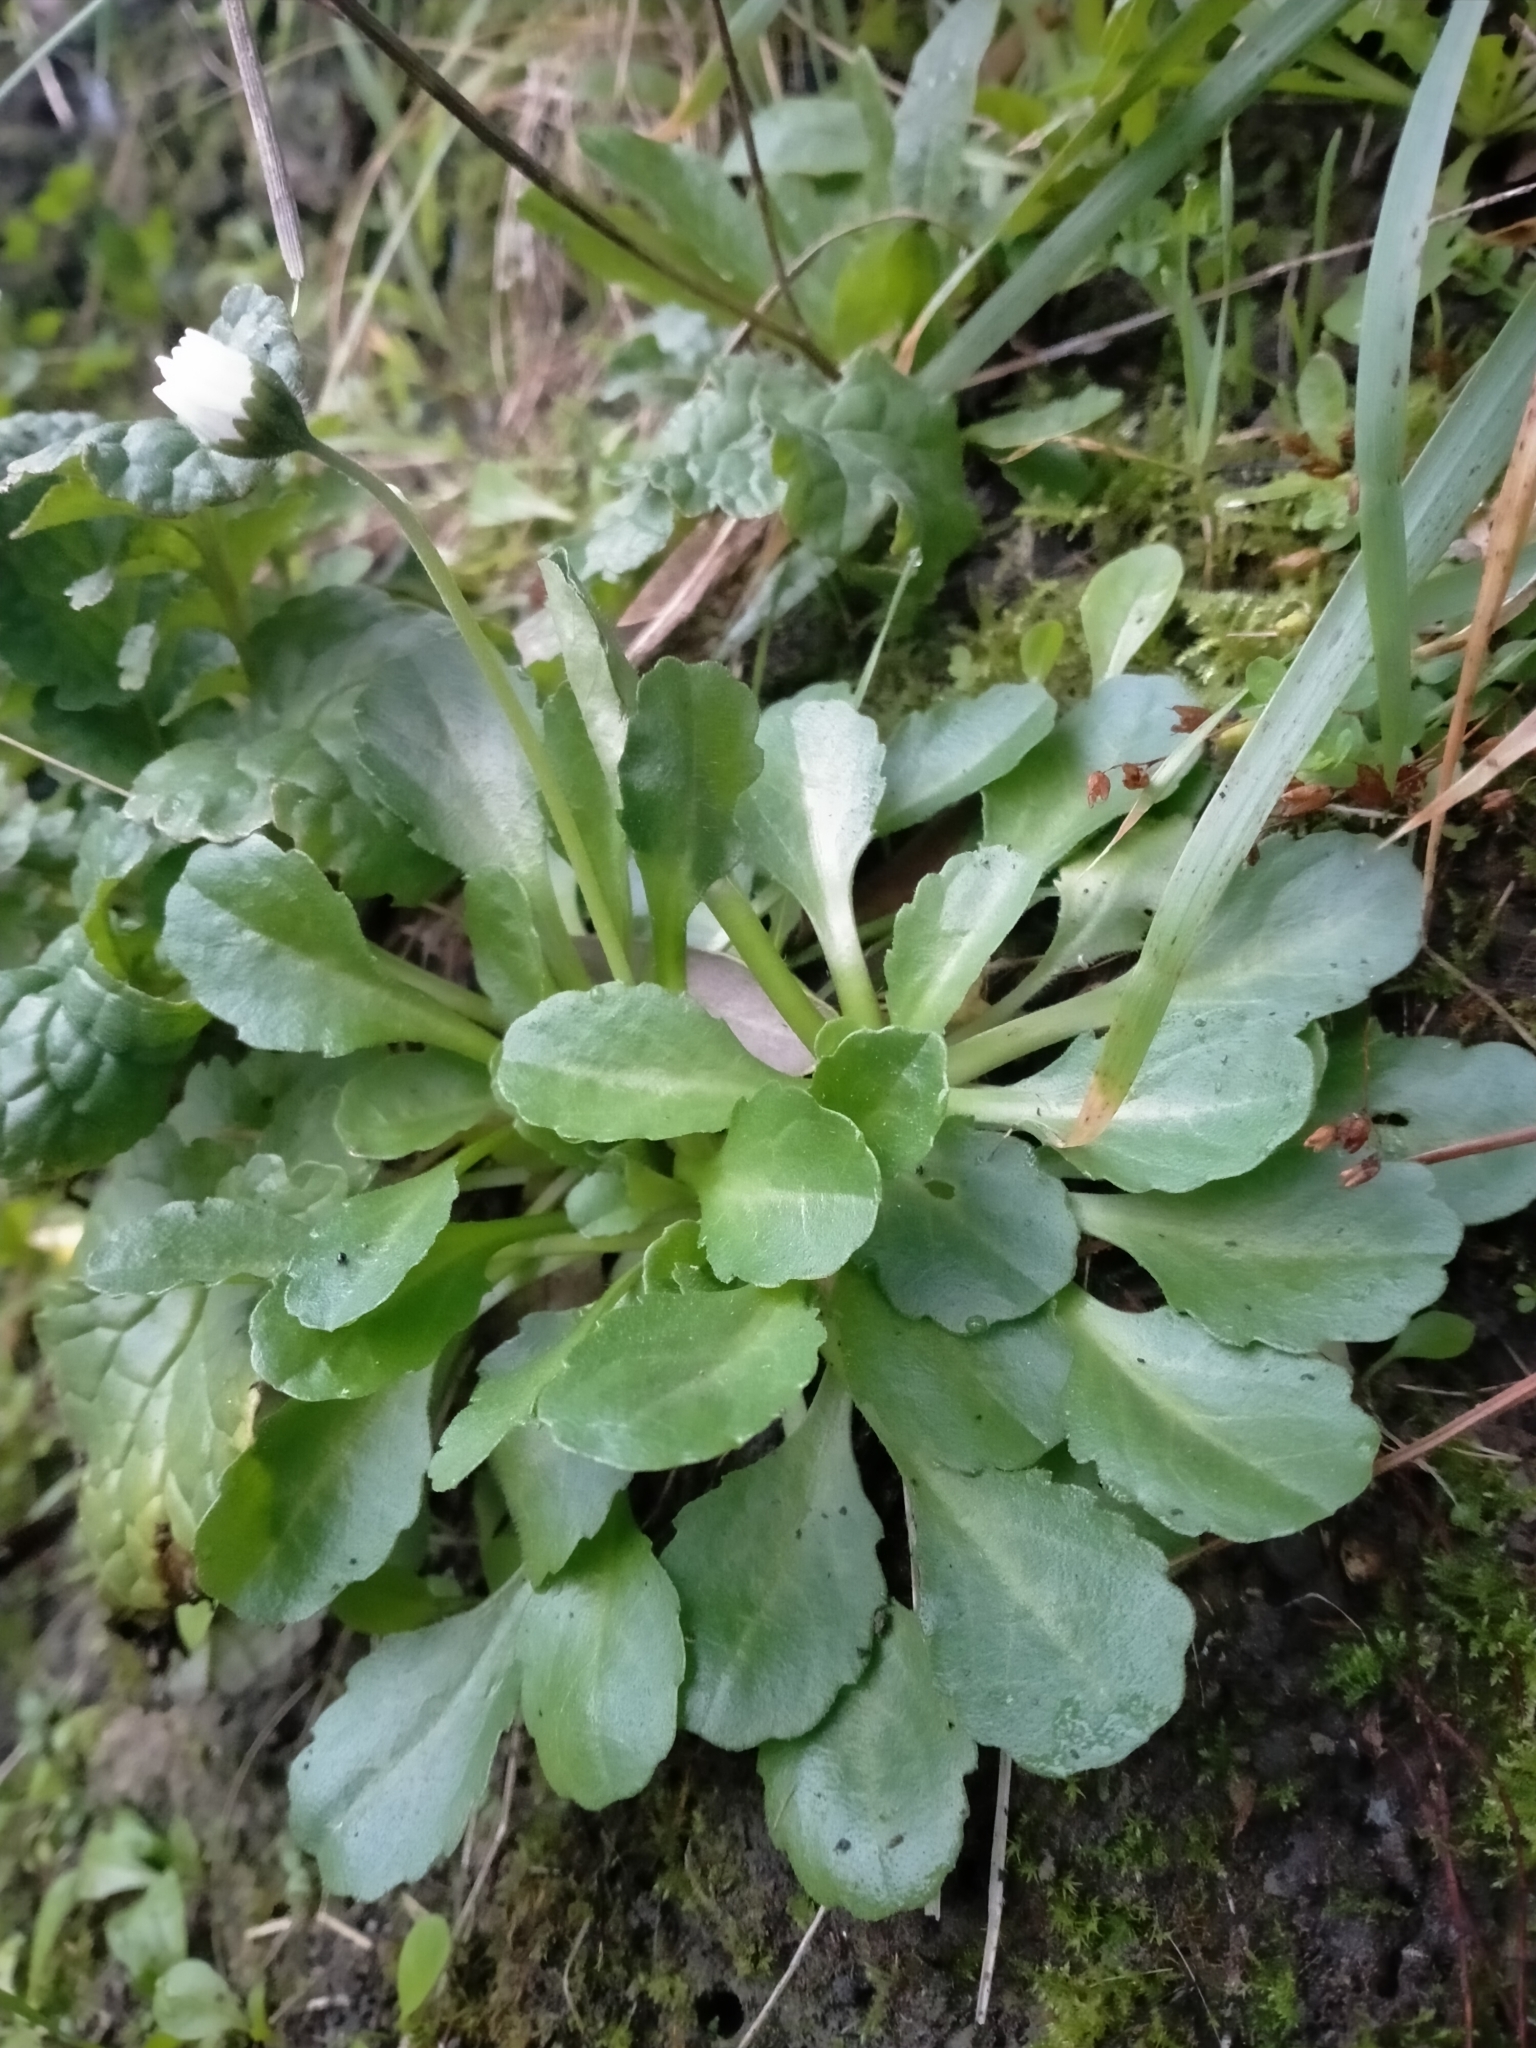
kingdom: Plantae
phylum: Tracheophyta
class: Magnoliopsida
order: Asterales
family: Asteraceae
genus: Bellis
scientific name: Bellis perennis
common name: Lawndaisy
